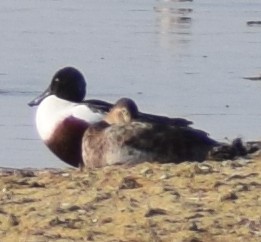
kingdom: Animalia
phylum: Chordata
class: Aves
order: Anseriformes
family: Anatidae
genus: Spatula
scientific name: Spatula clypeata
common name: Northern shoveler
